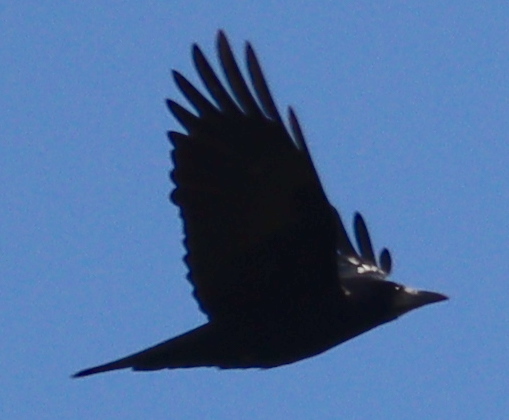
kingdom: Animalia
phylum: Chordata
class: Aves
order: Passeriformes
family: Corvidae
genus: Corvus
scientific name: Corvus frugilegus
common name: Rook
